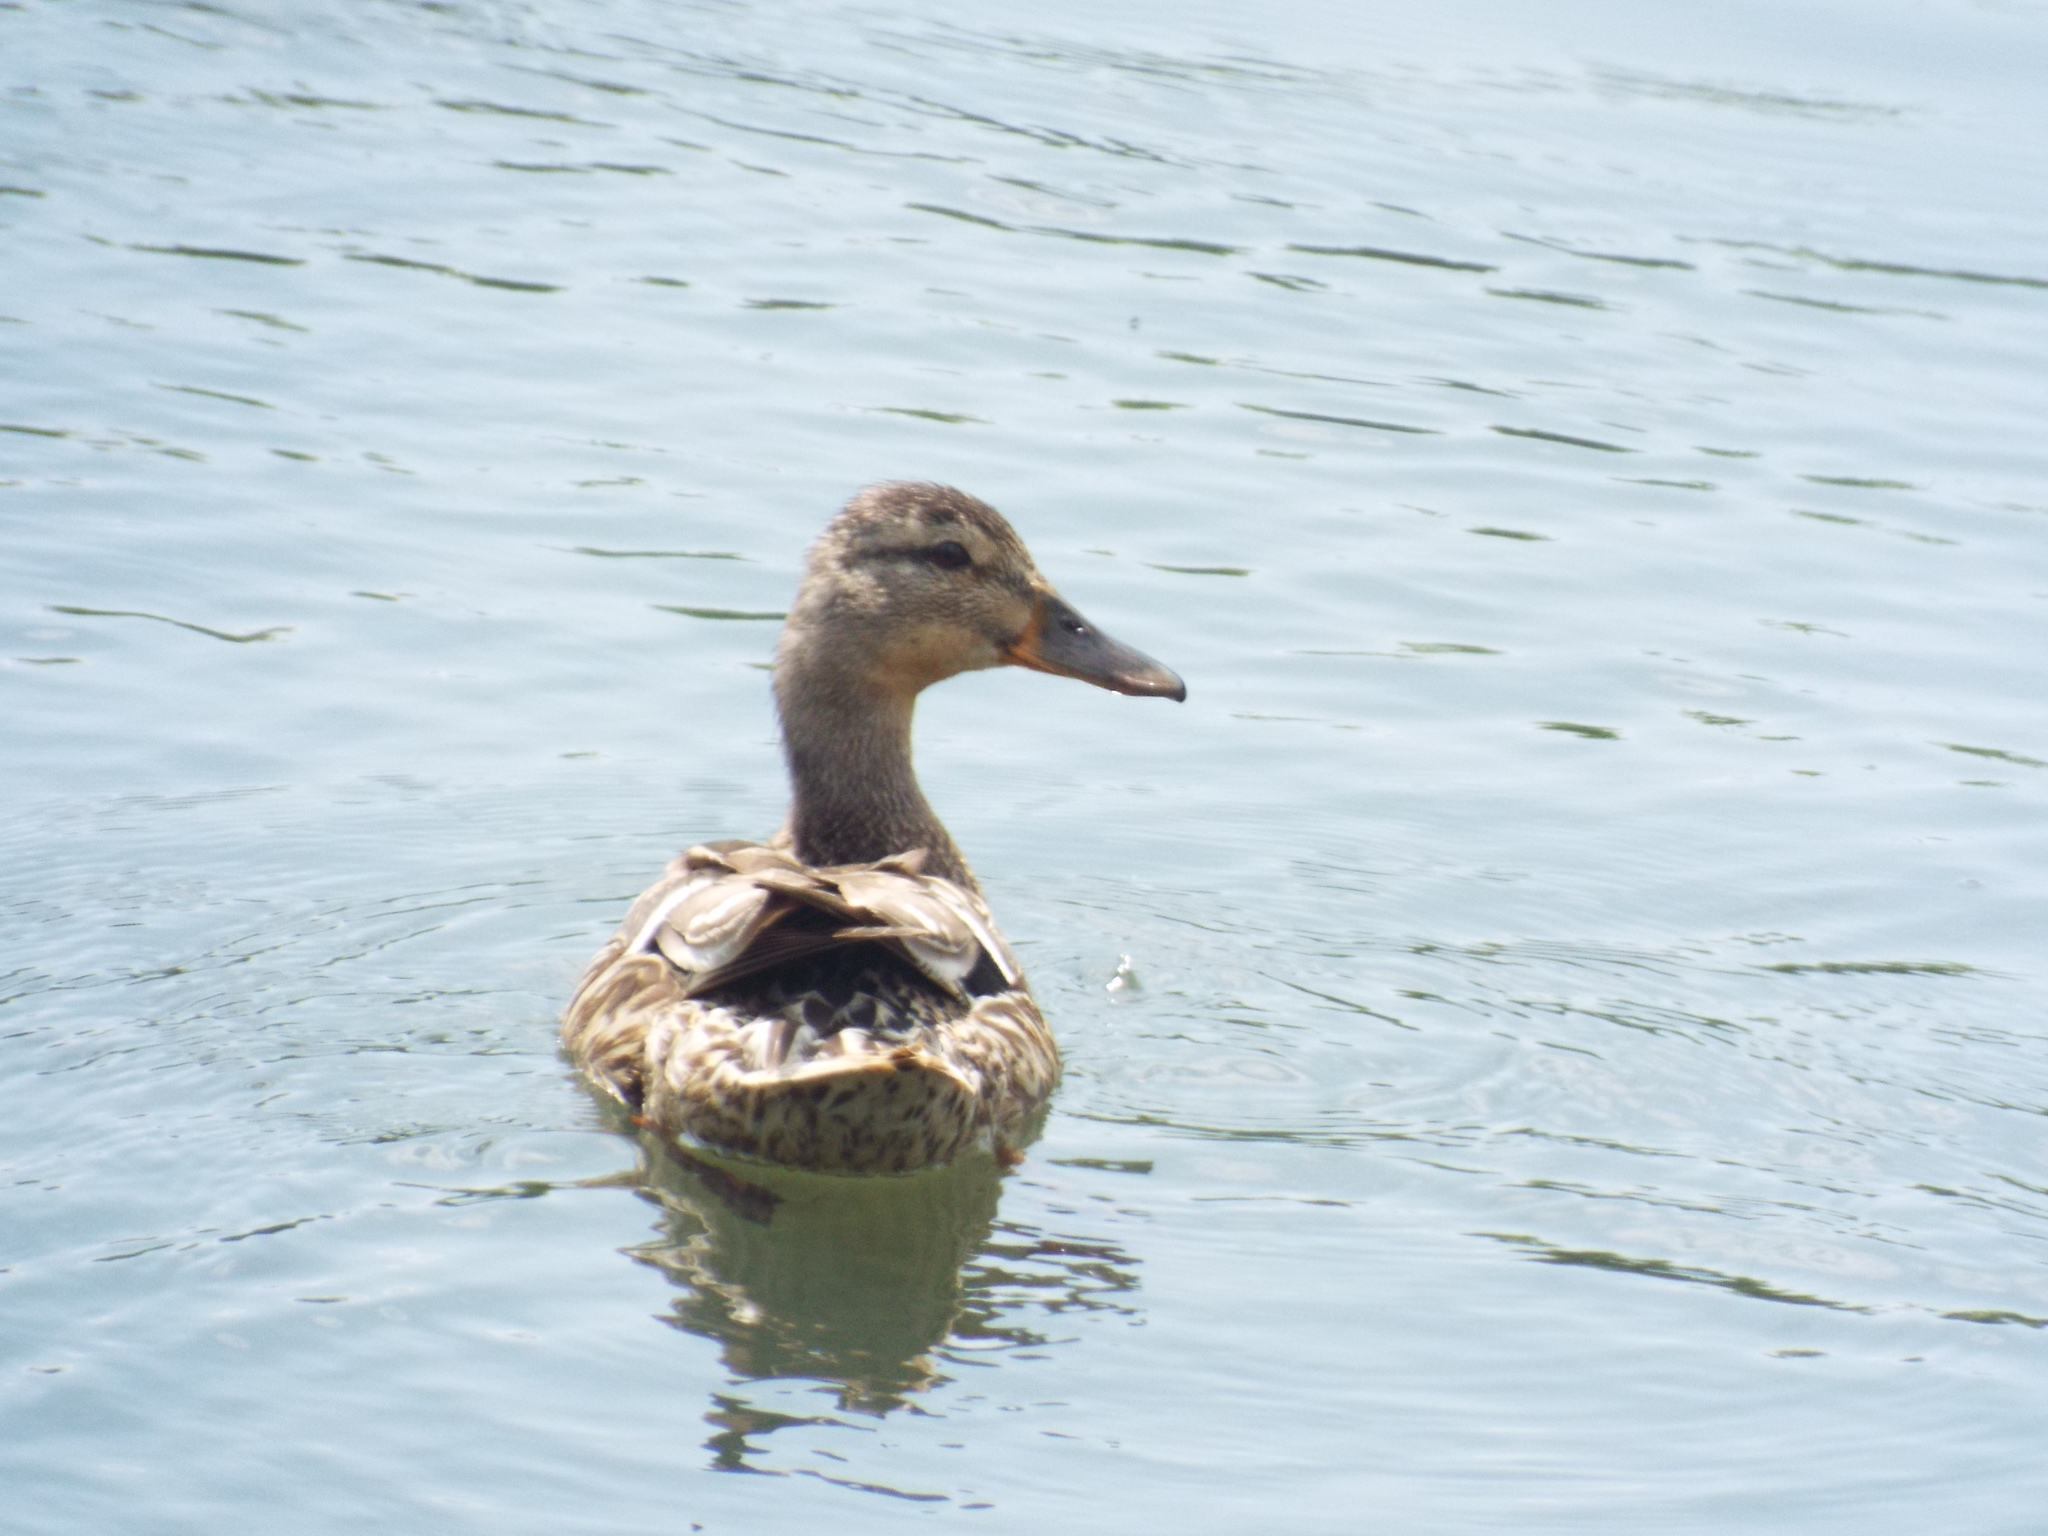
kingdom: Animalia
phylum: Chordata
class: Aves
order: Anseriformes
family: Anatidae
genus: Anas
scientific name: Anas platyrhynchos
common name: Mallard
